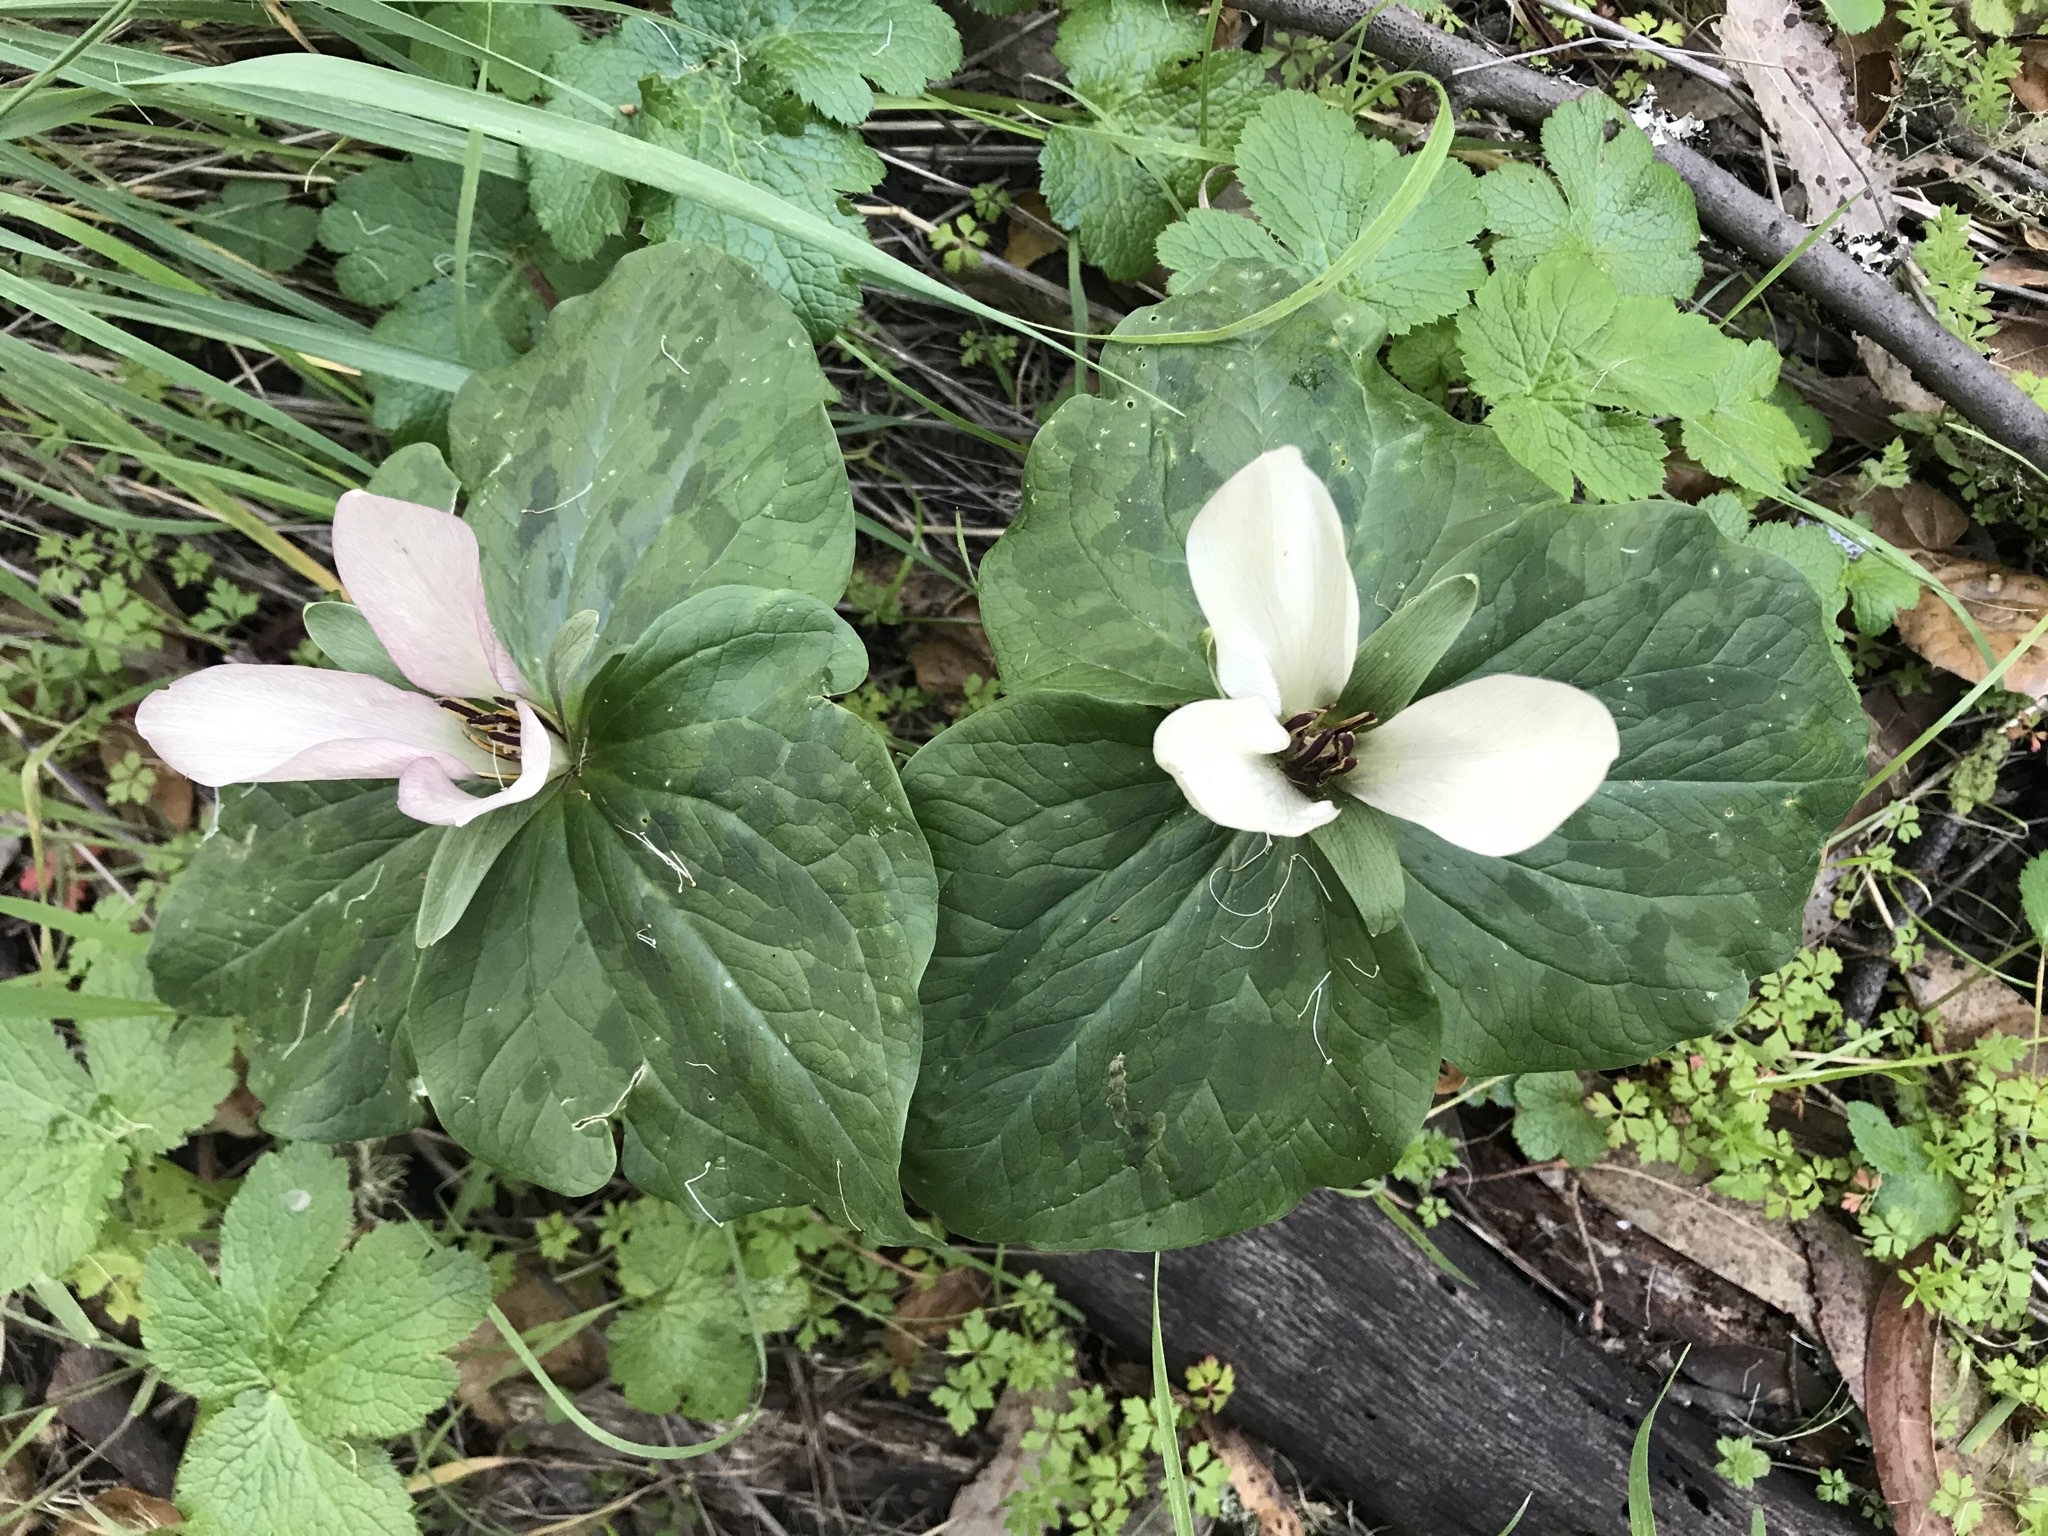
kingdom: Plantae
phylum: Tracheophyta
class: Liliopsida
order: Liliales
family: Melanthiaceae
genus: Trillium
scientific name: Trillium chloropetalum
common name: Giant trillium
